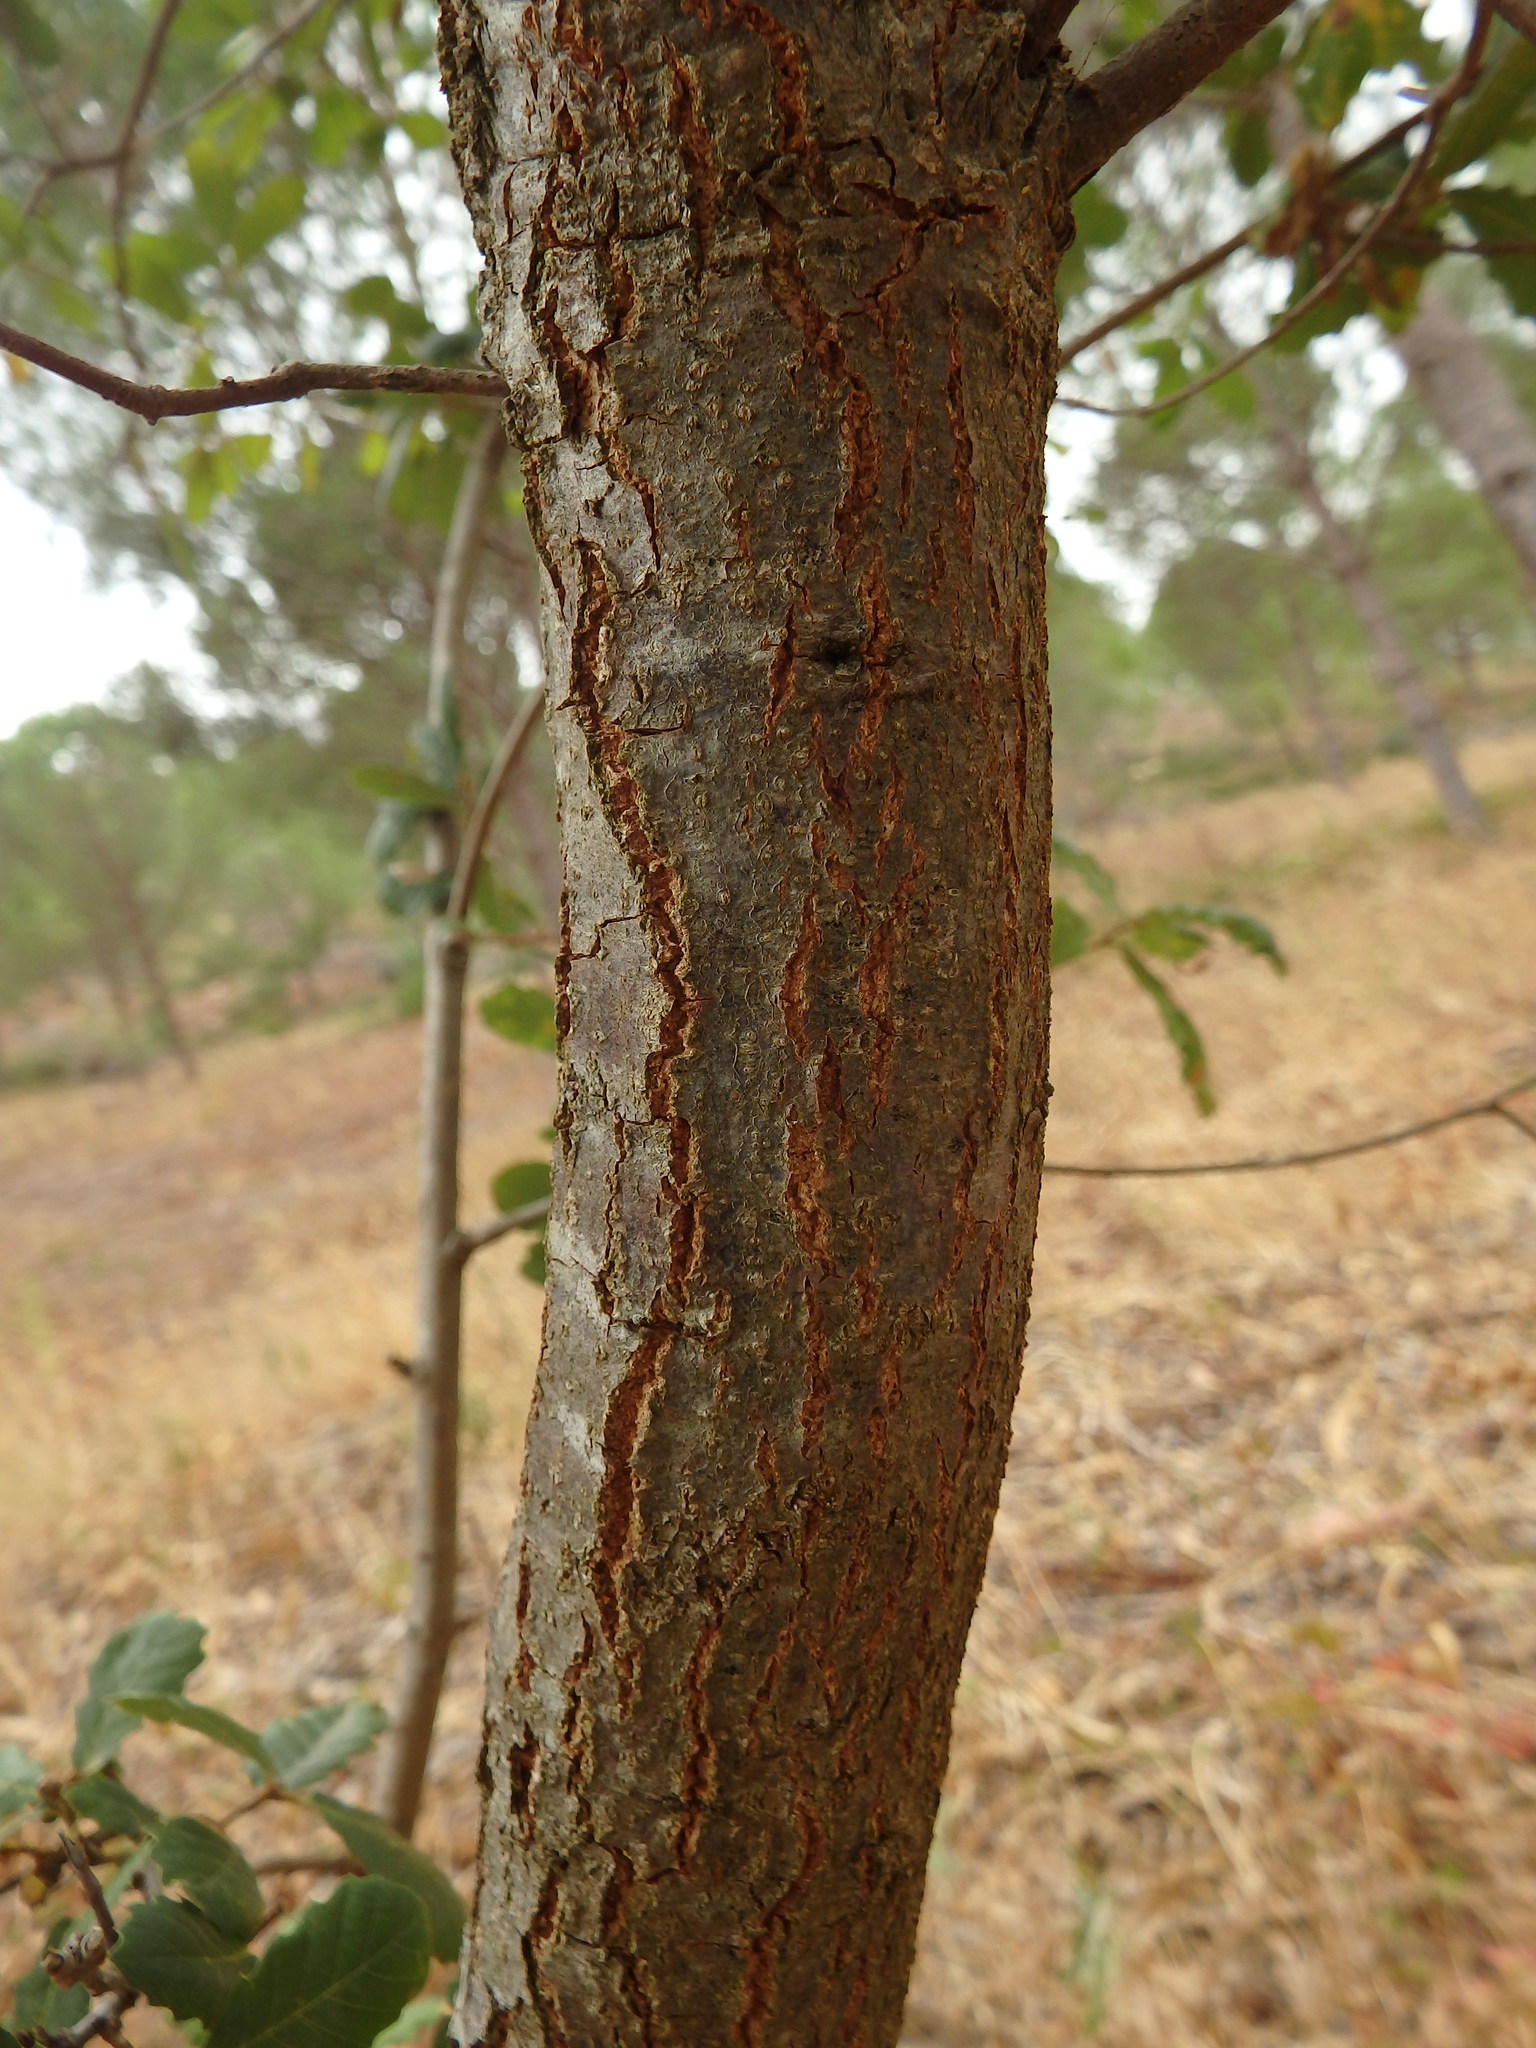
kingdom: Plantae
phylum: Tracheophyta
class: Magnoliopsida
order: Fagales
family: Fagaceae
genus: Quercus
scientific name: Quercus faginea
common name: Gall oak tree
